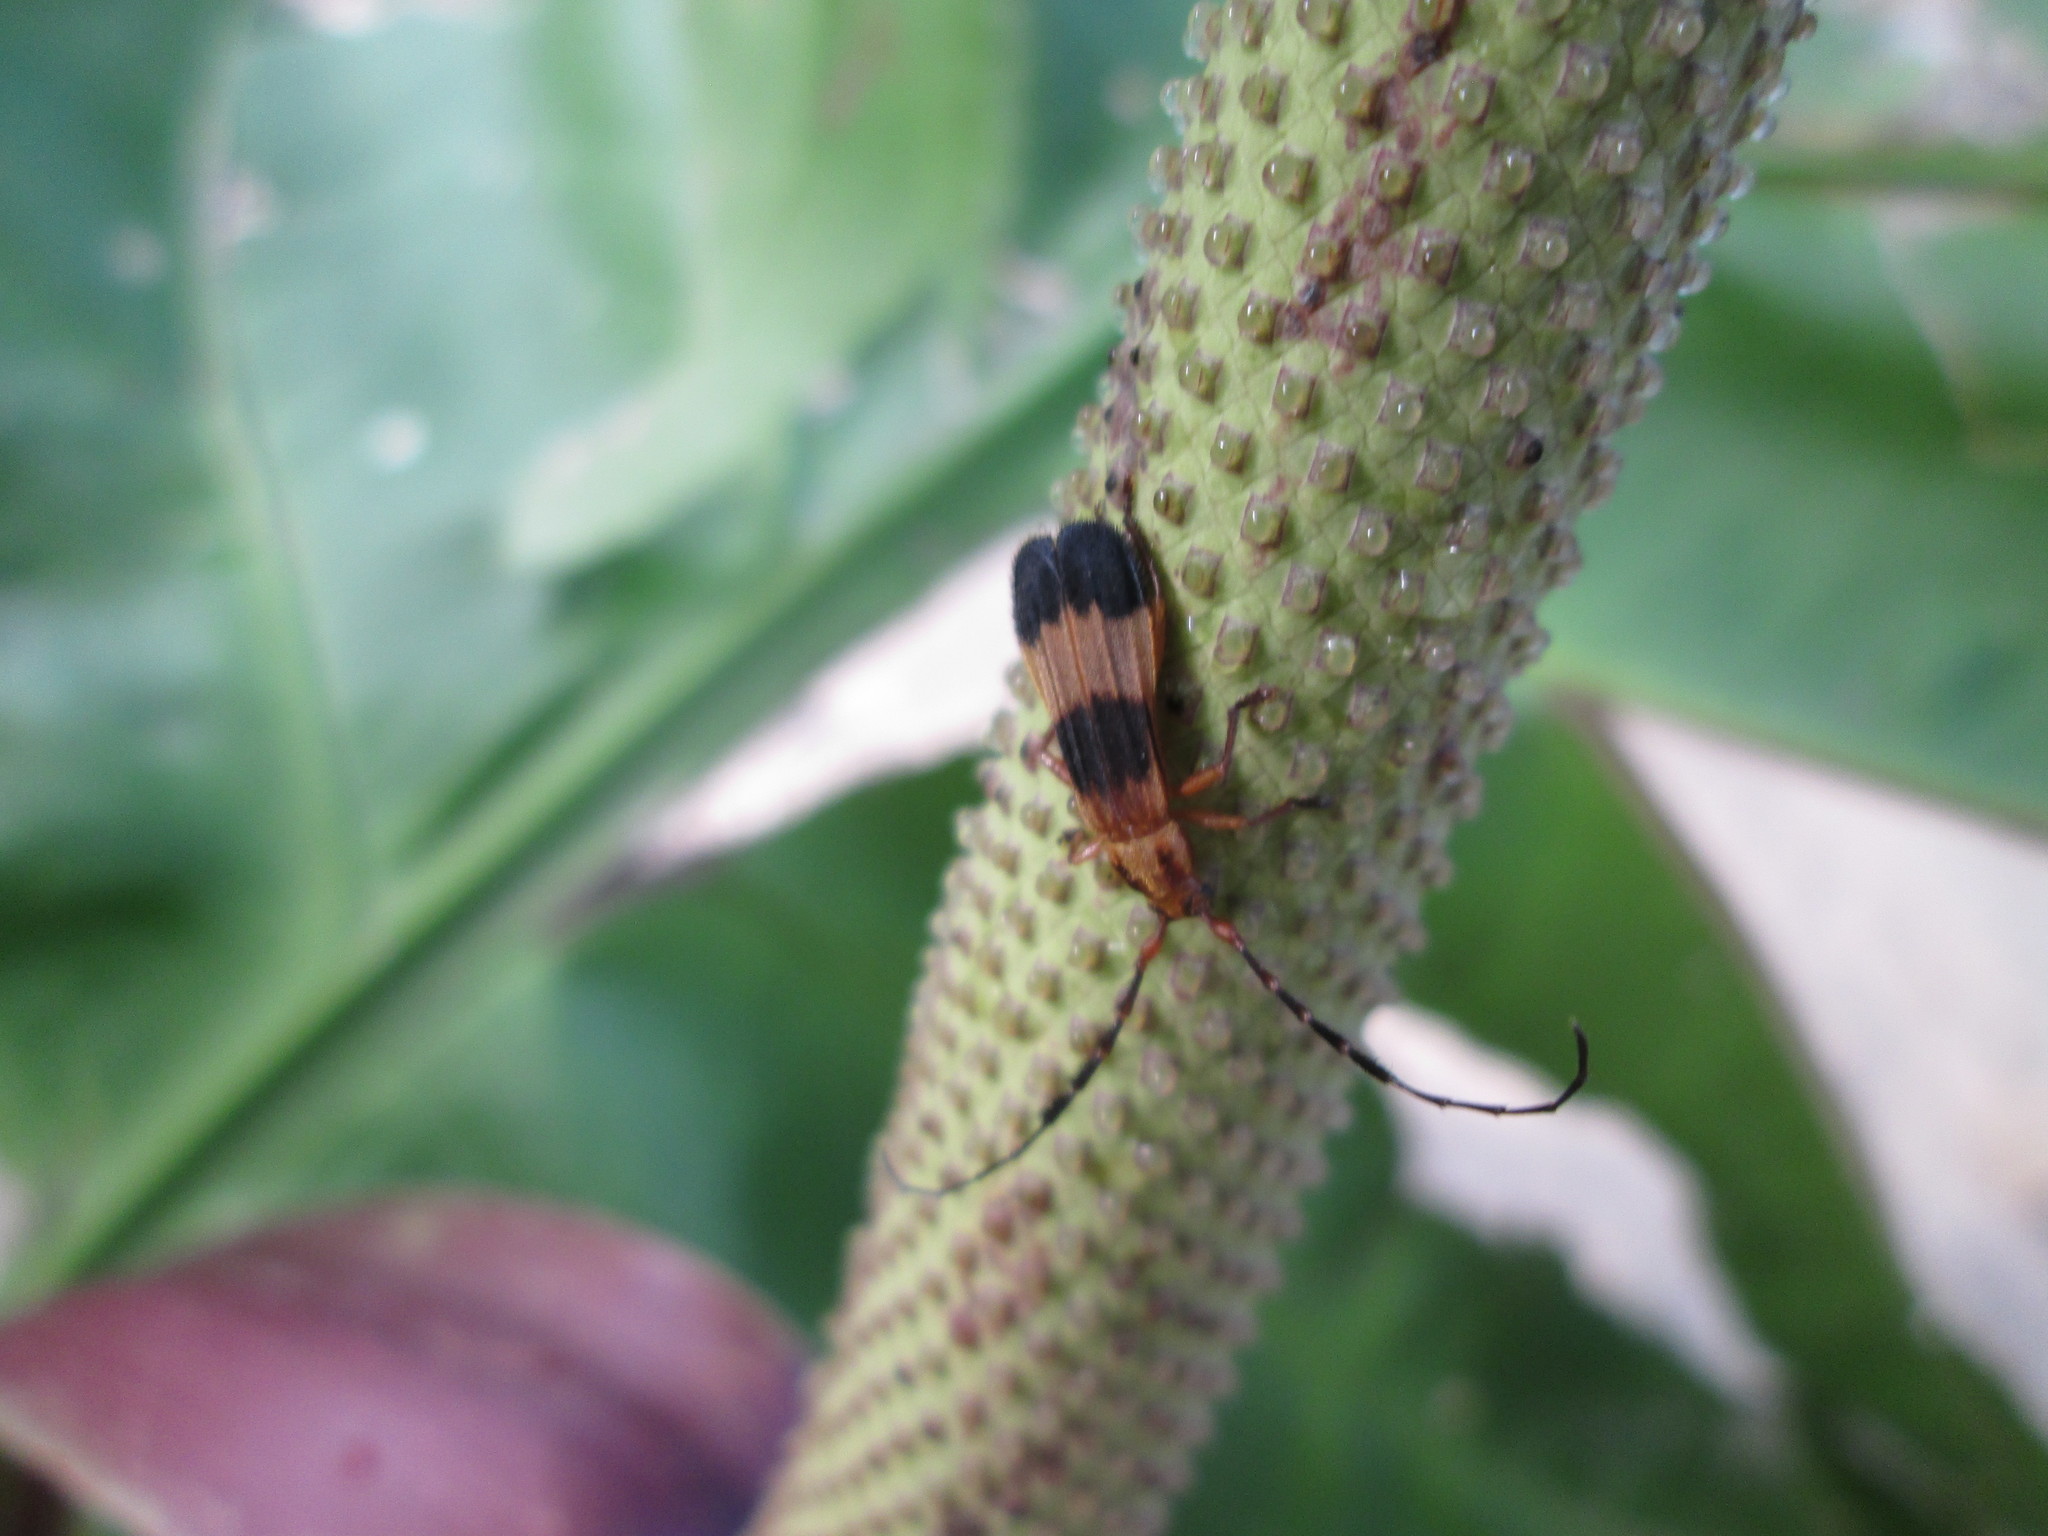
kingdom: Animalia
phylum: Arthropoda
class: Insecta
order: Coleoptera
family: Cerambycidae
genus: Pteroplatus
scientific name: Pteroplatus bilineatus
